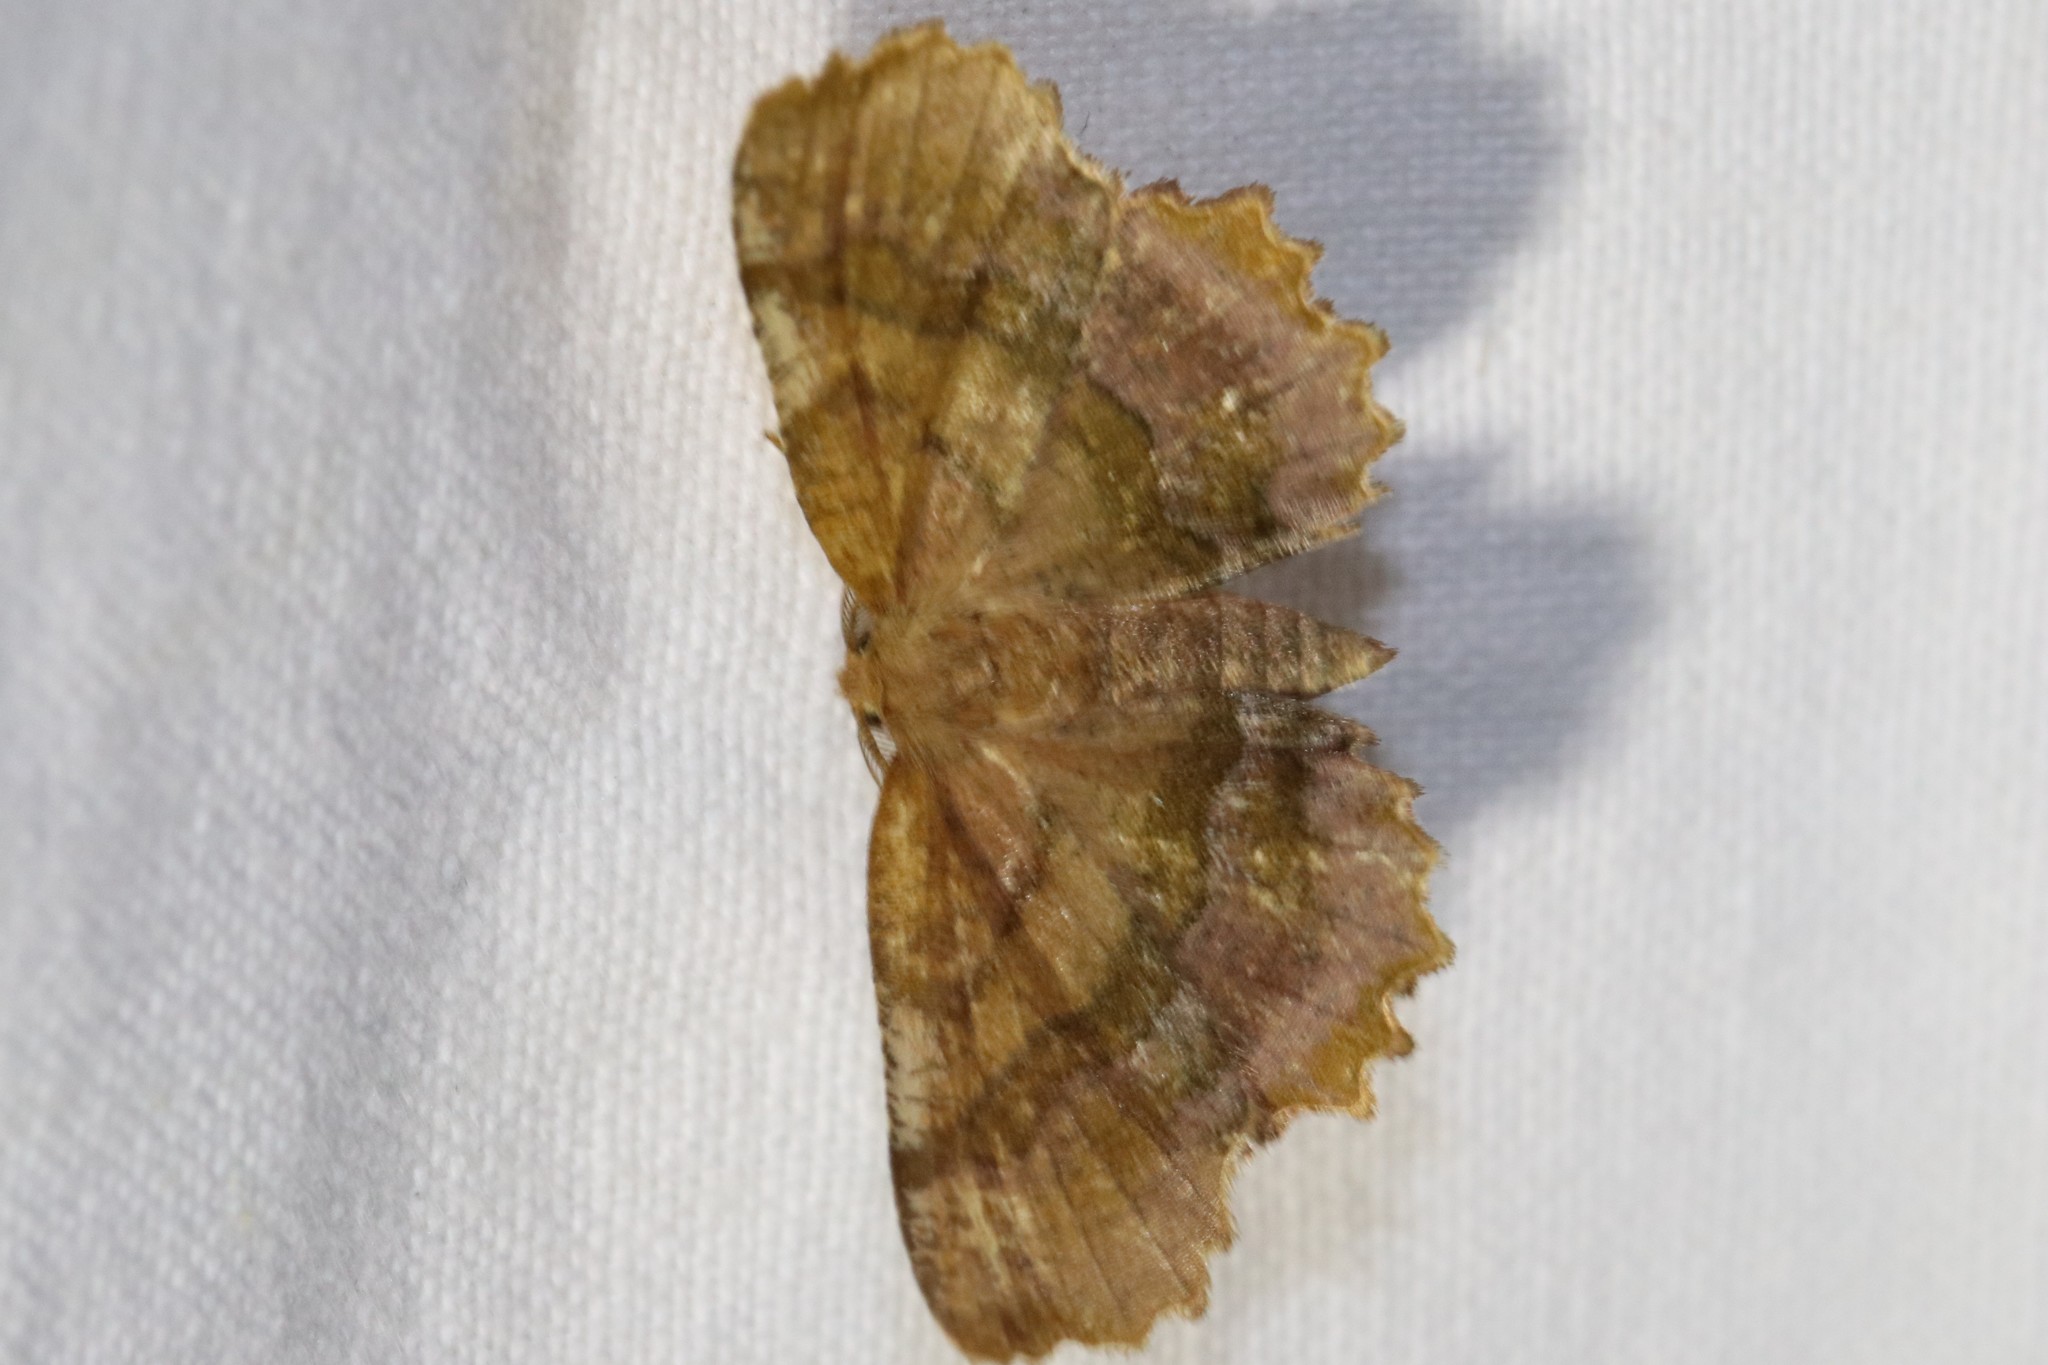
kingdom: Animalia
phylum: Arthropoda
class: Insecta
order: Lepidoptera
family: Geometridae
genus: Cepphis
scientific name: Cepphis armataria
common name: Scallop moth
